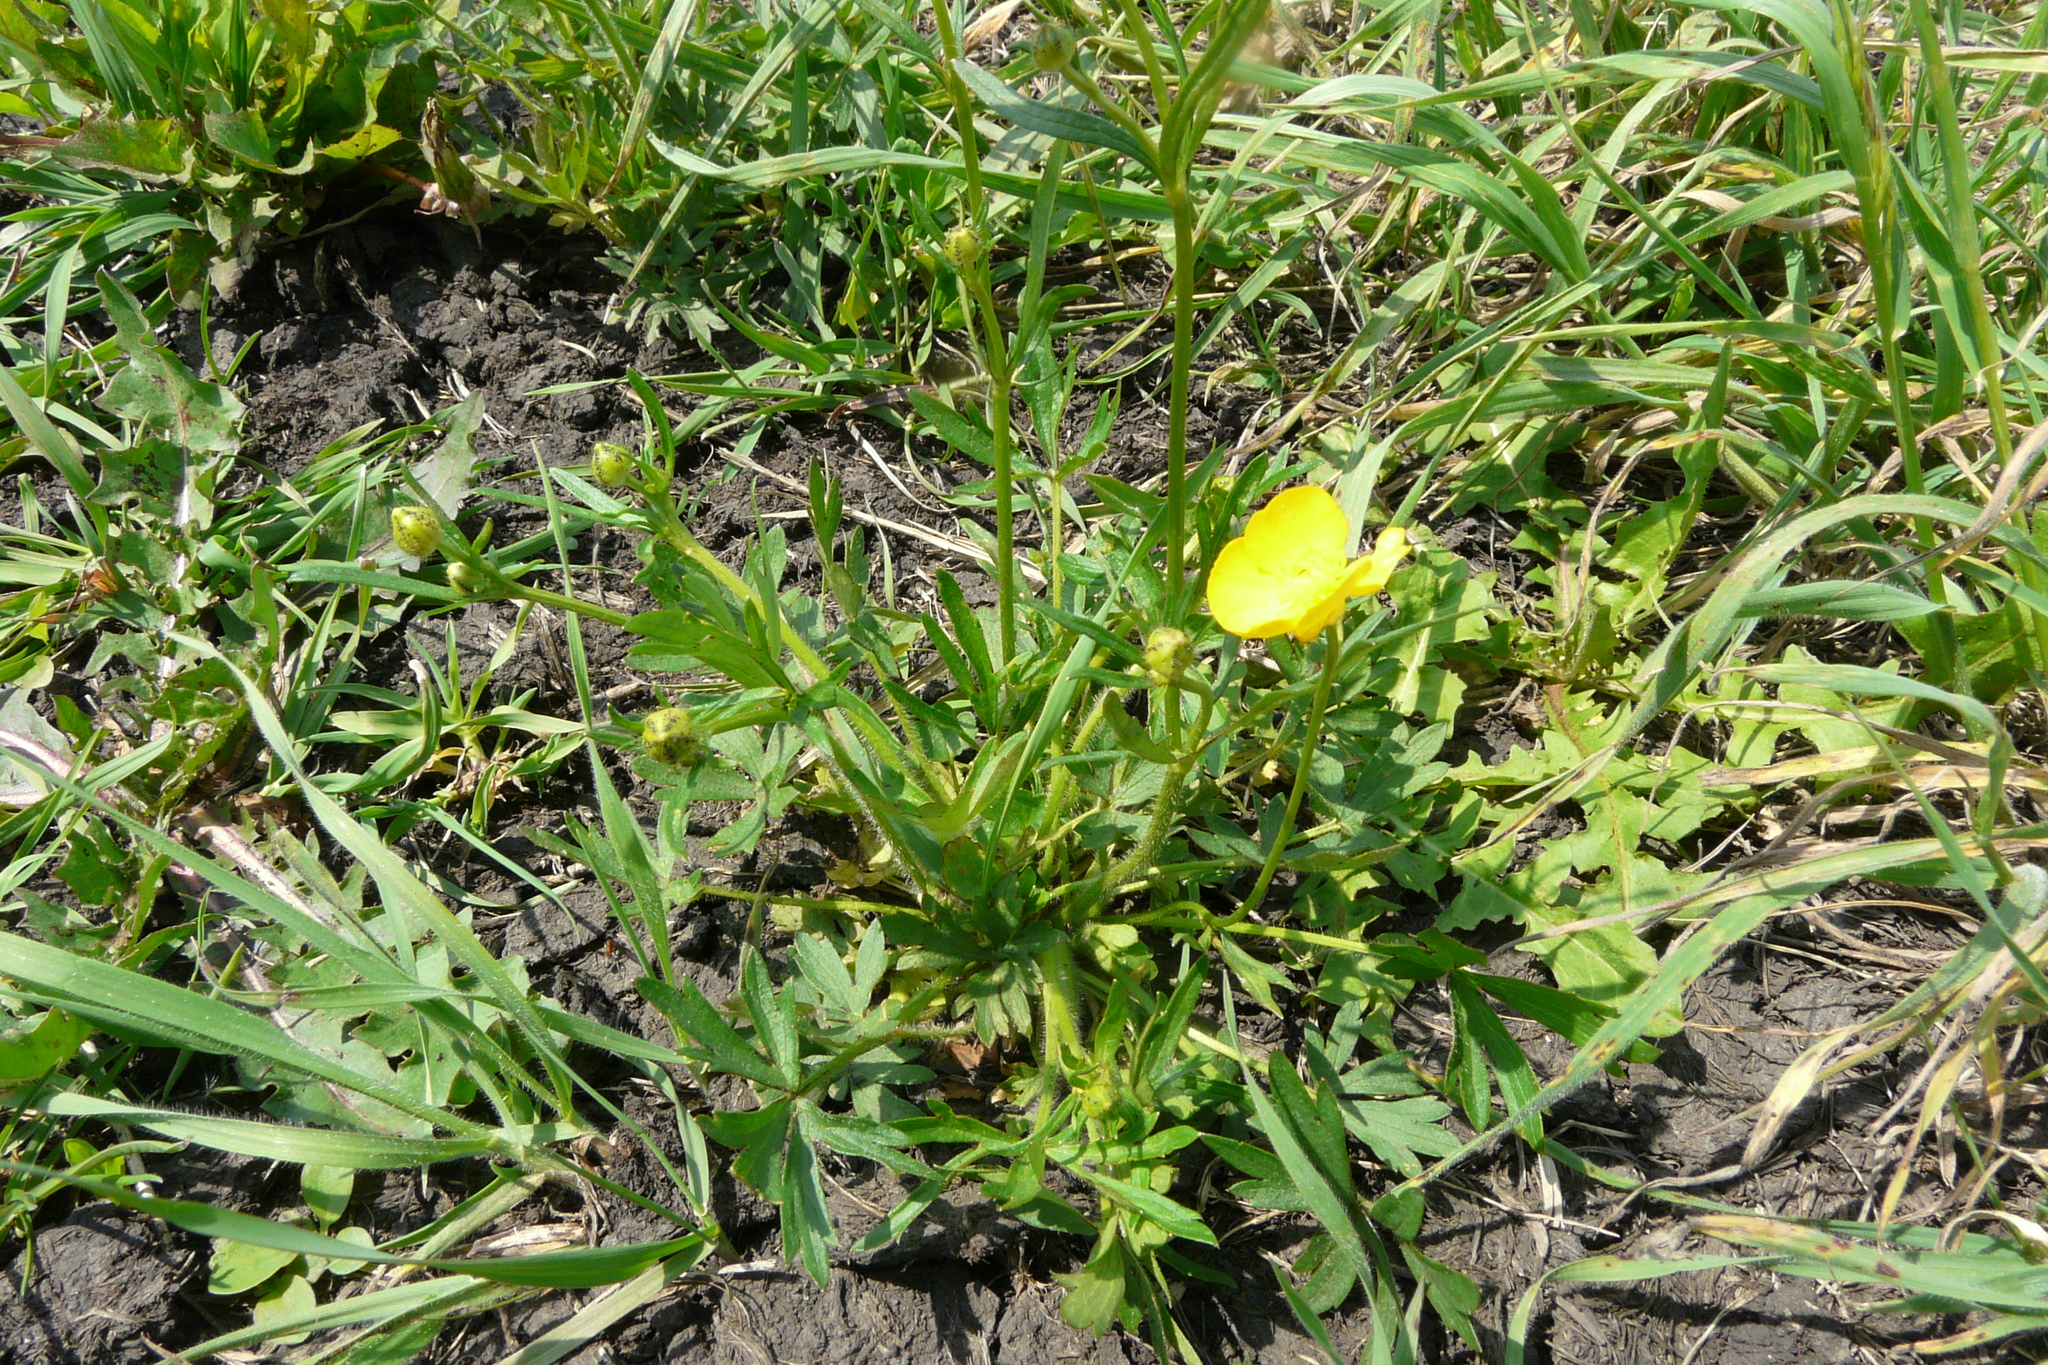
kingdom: Plantae
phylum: Tracheophyta
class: Magnoliopsida
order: Ranunculales
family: Ranunculaceae
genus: Ranunculus
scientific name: Ranunculus polyanthemos
